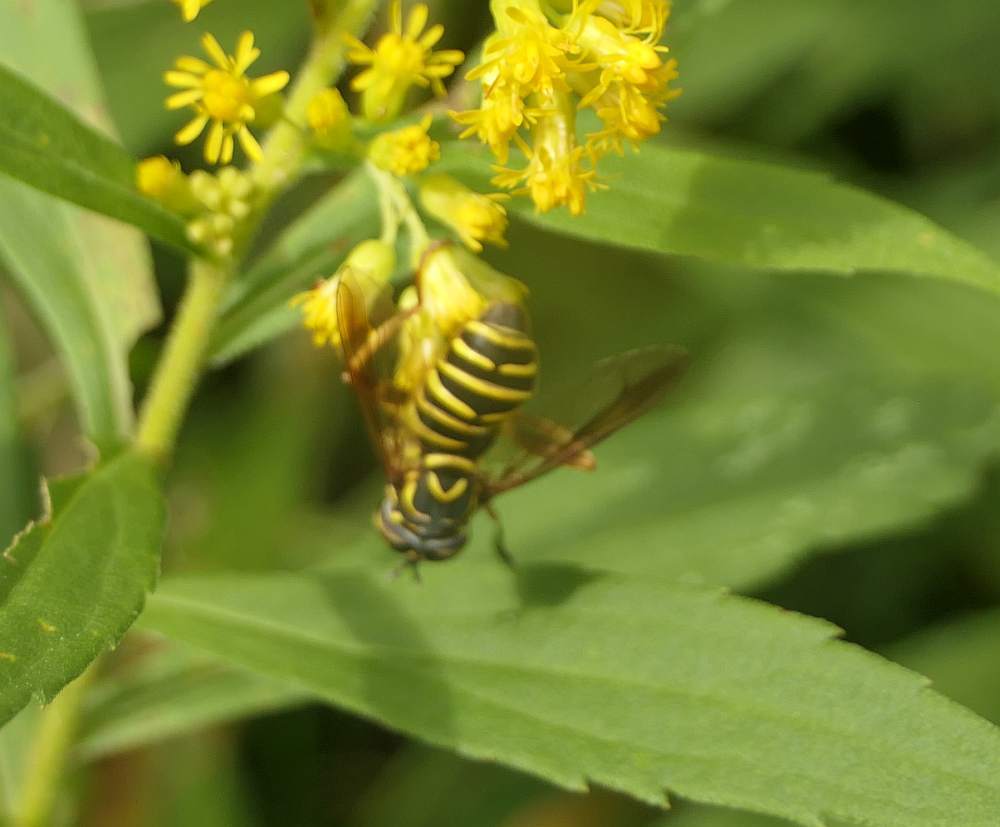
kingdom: Animalia
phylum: Arthropoda
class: Insecta
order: Diptera
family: Syrphidae
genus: Spilomyia
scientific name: Spilomyia longicornis
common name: Eastern hornet fly
